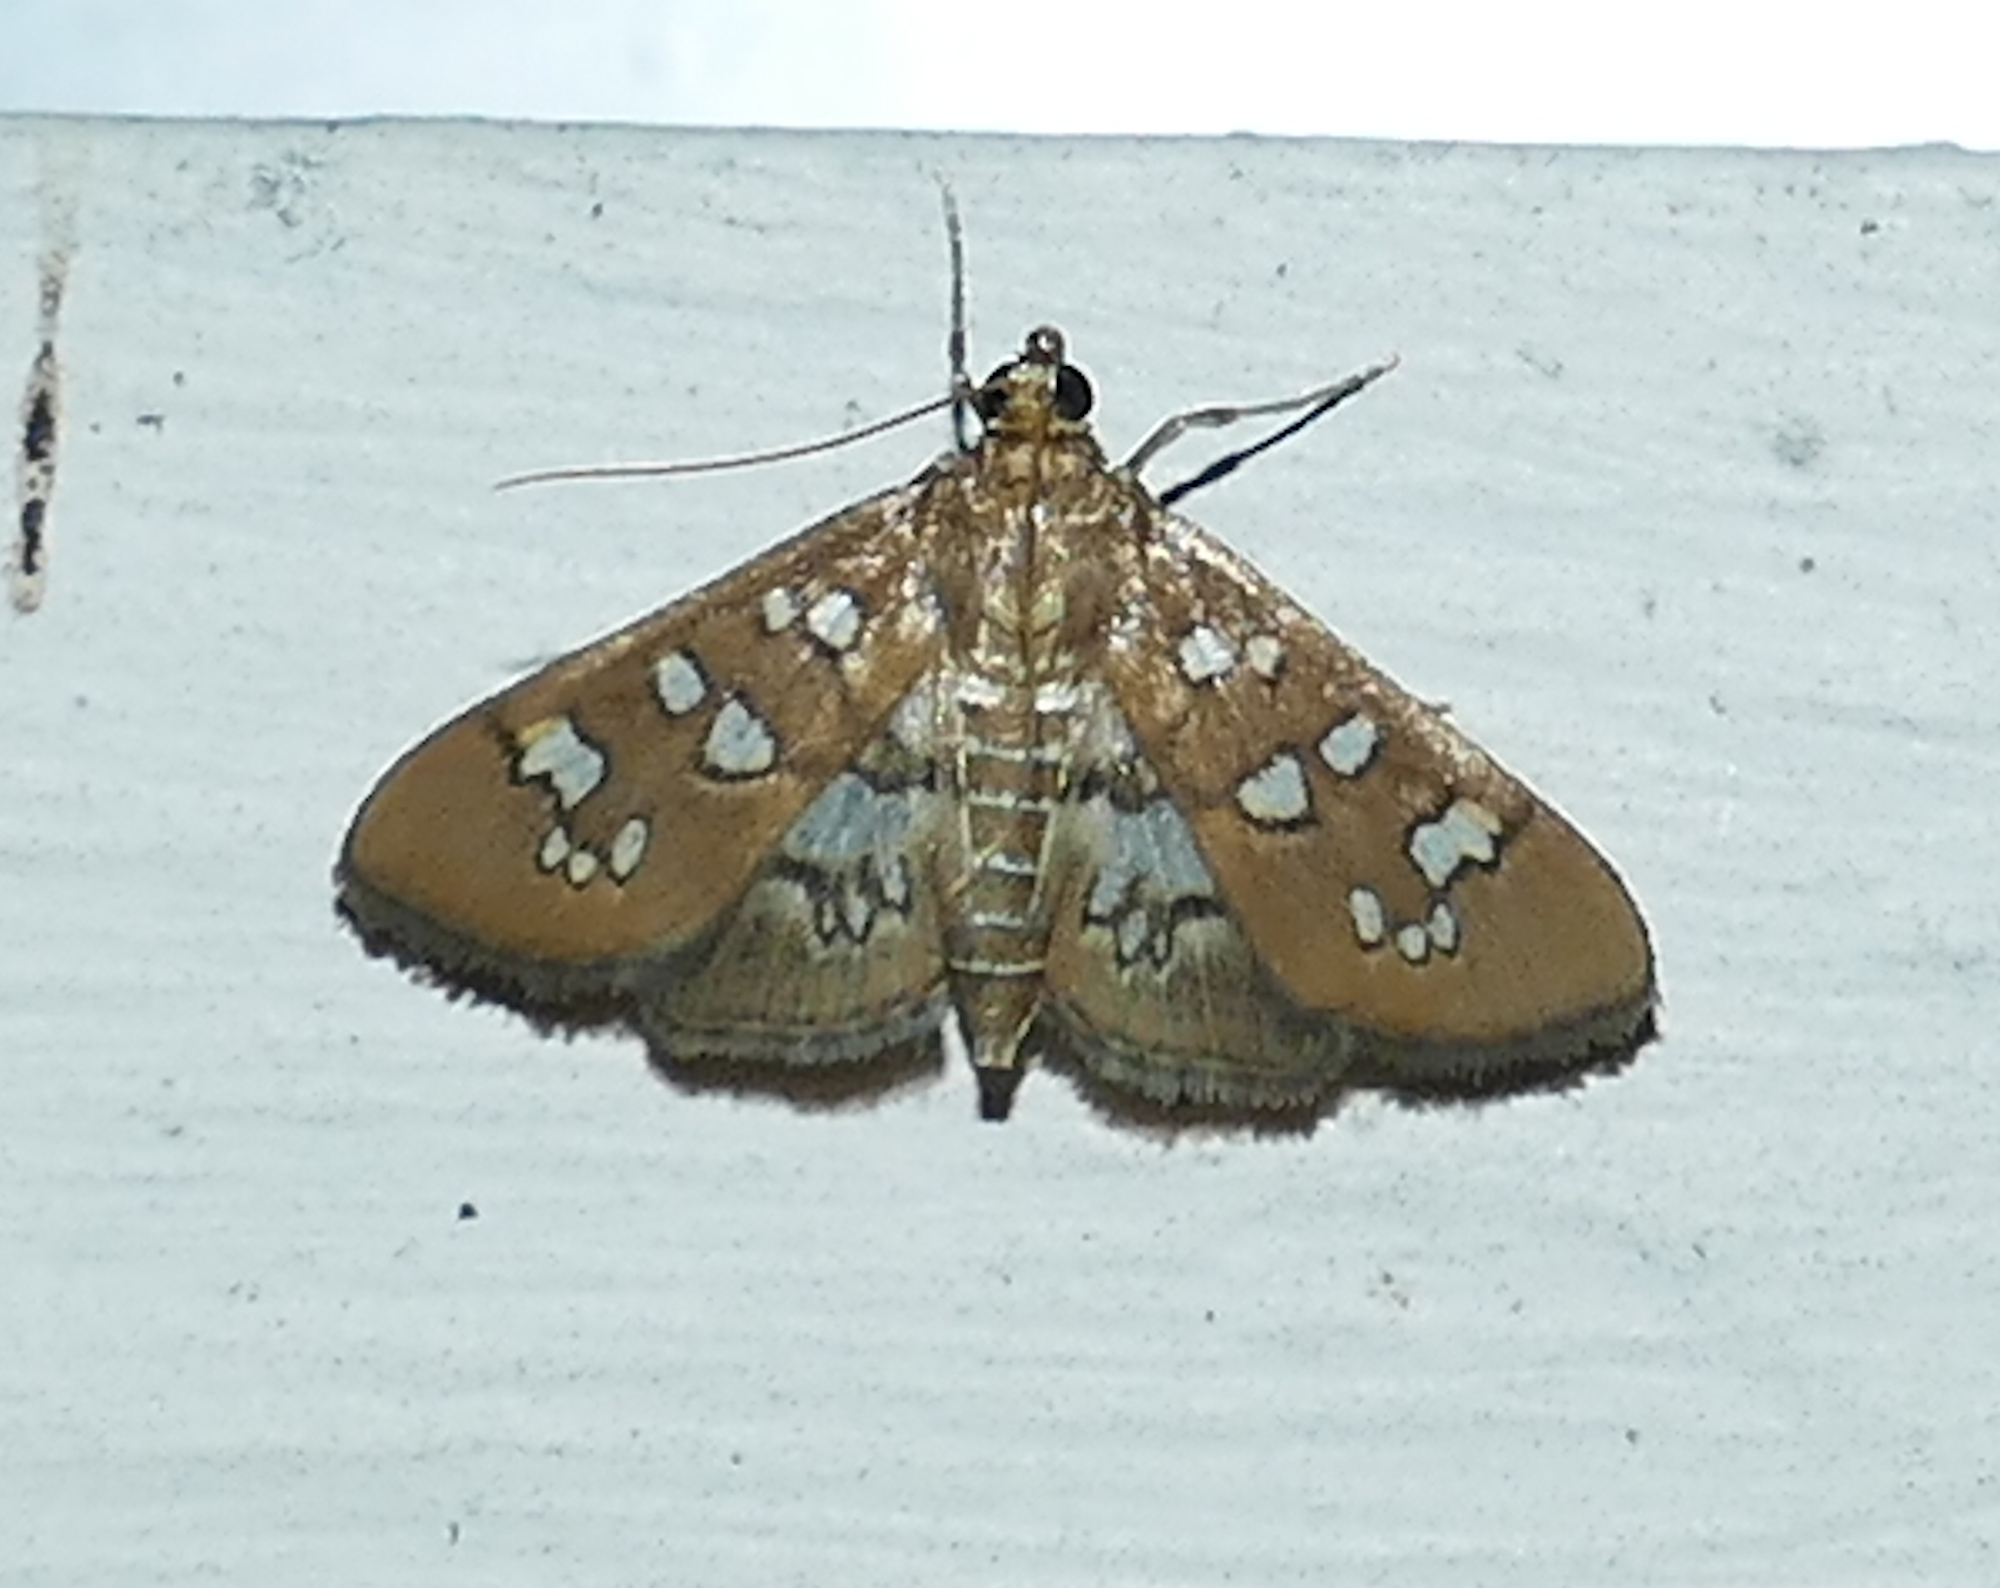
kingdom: Animalia
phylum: Arthropoda
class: Insecta
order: Lepidoptera
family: Crambidae
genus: Samea
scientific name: Samea baccatalis
